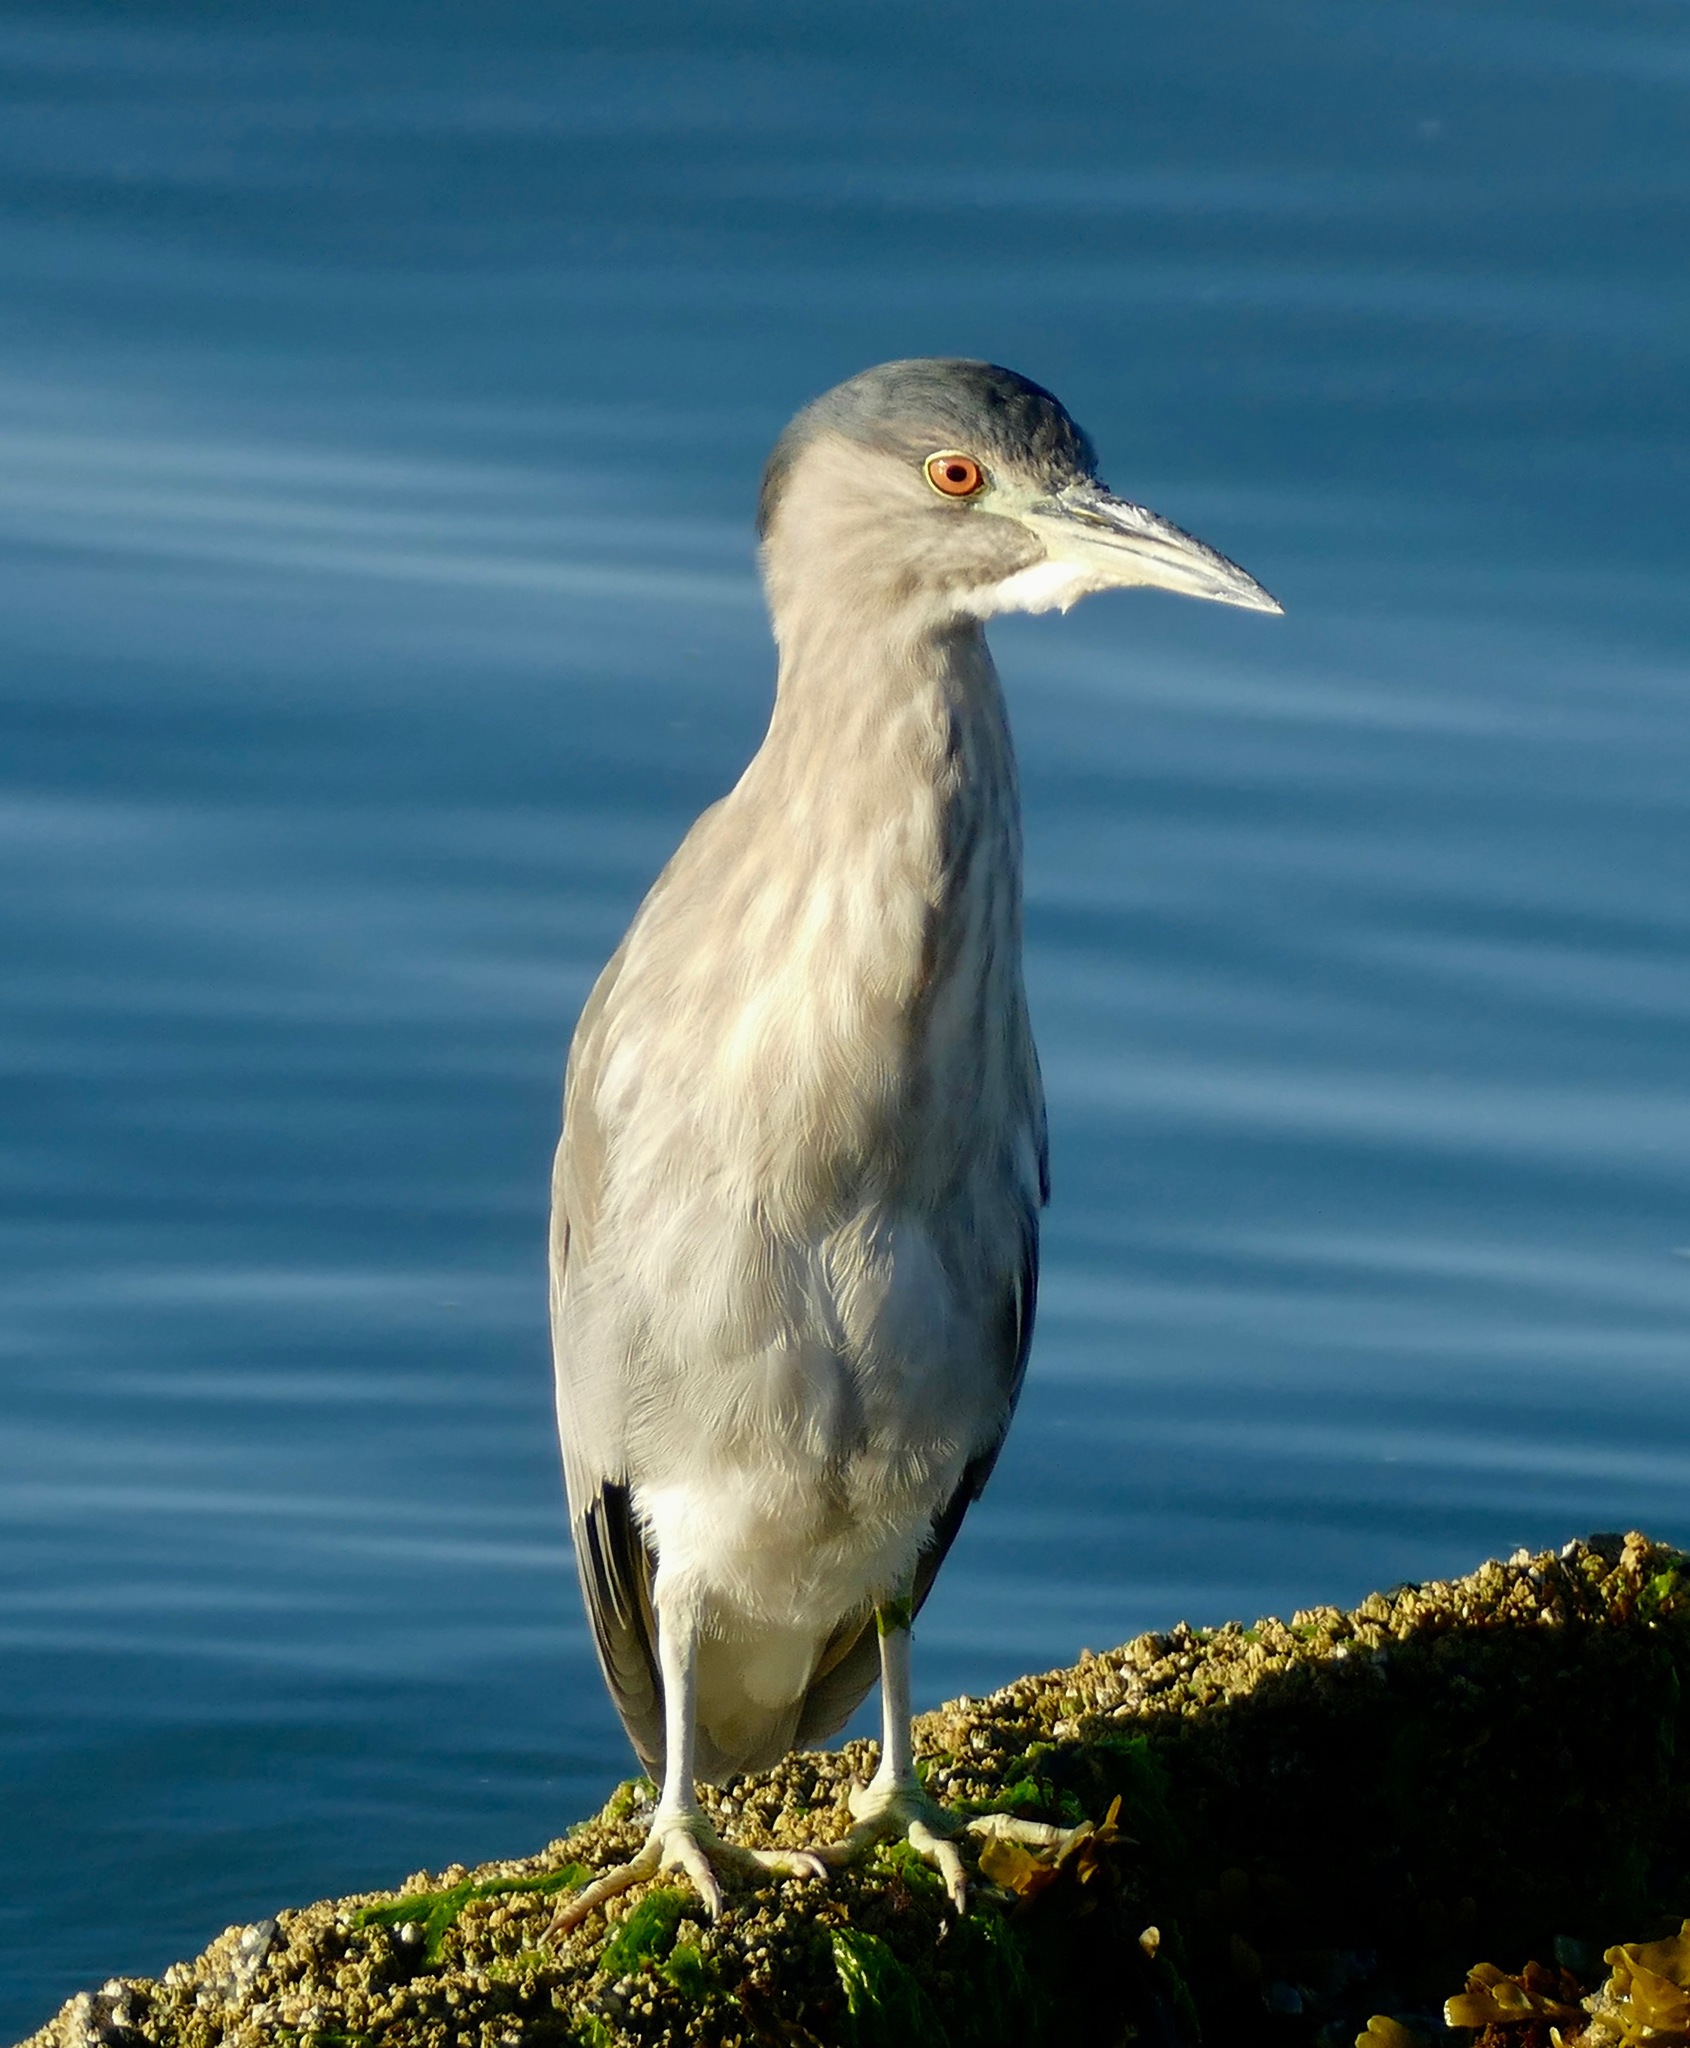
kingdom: Animalia
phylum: Chordata
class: Aves
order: Pelecaniformes
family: Ardeidae
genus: Nycticorax
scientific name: Nycticorax nycticorax
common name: Black-crowned night heron
